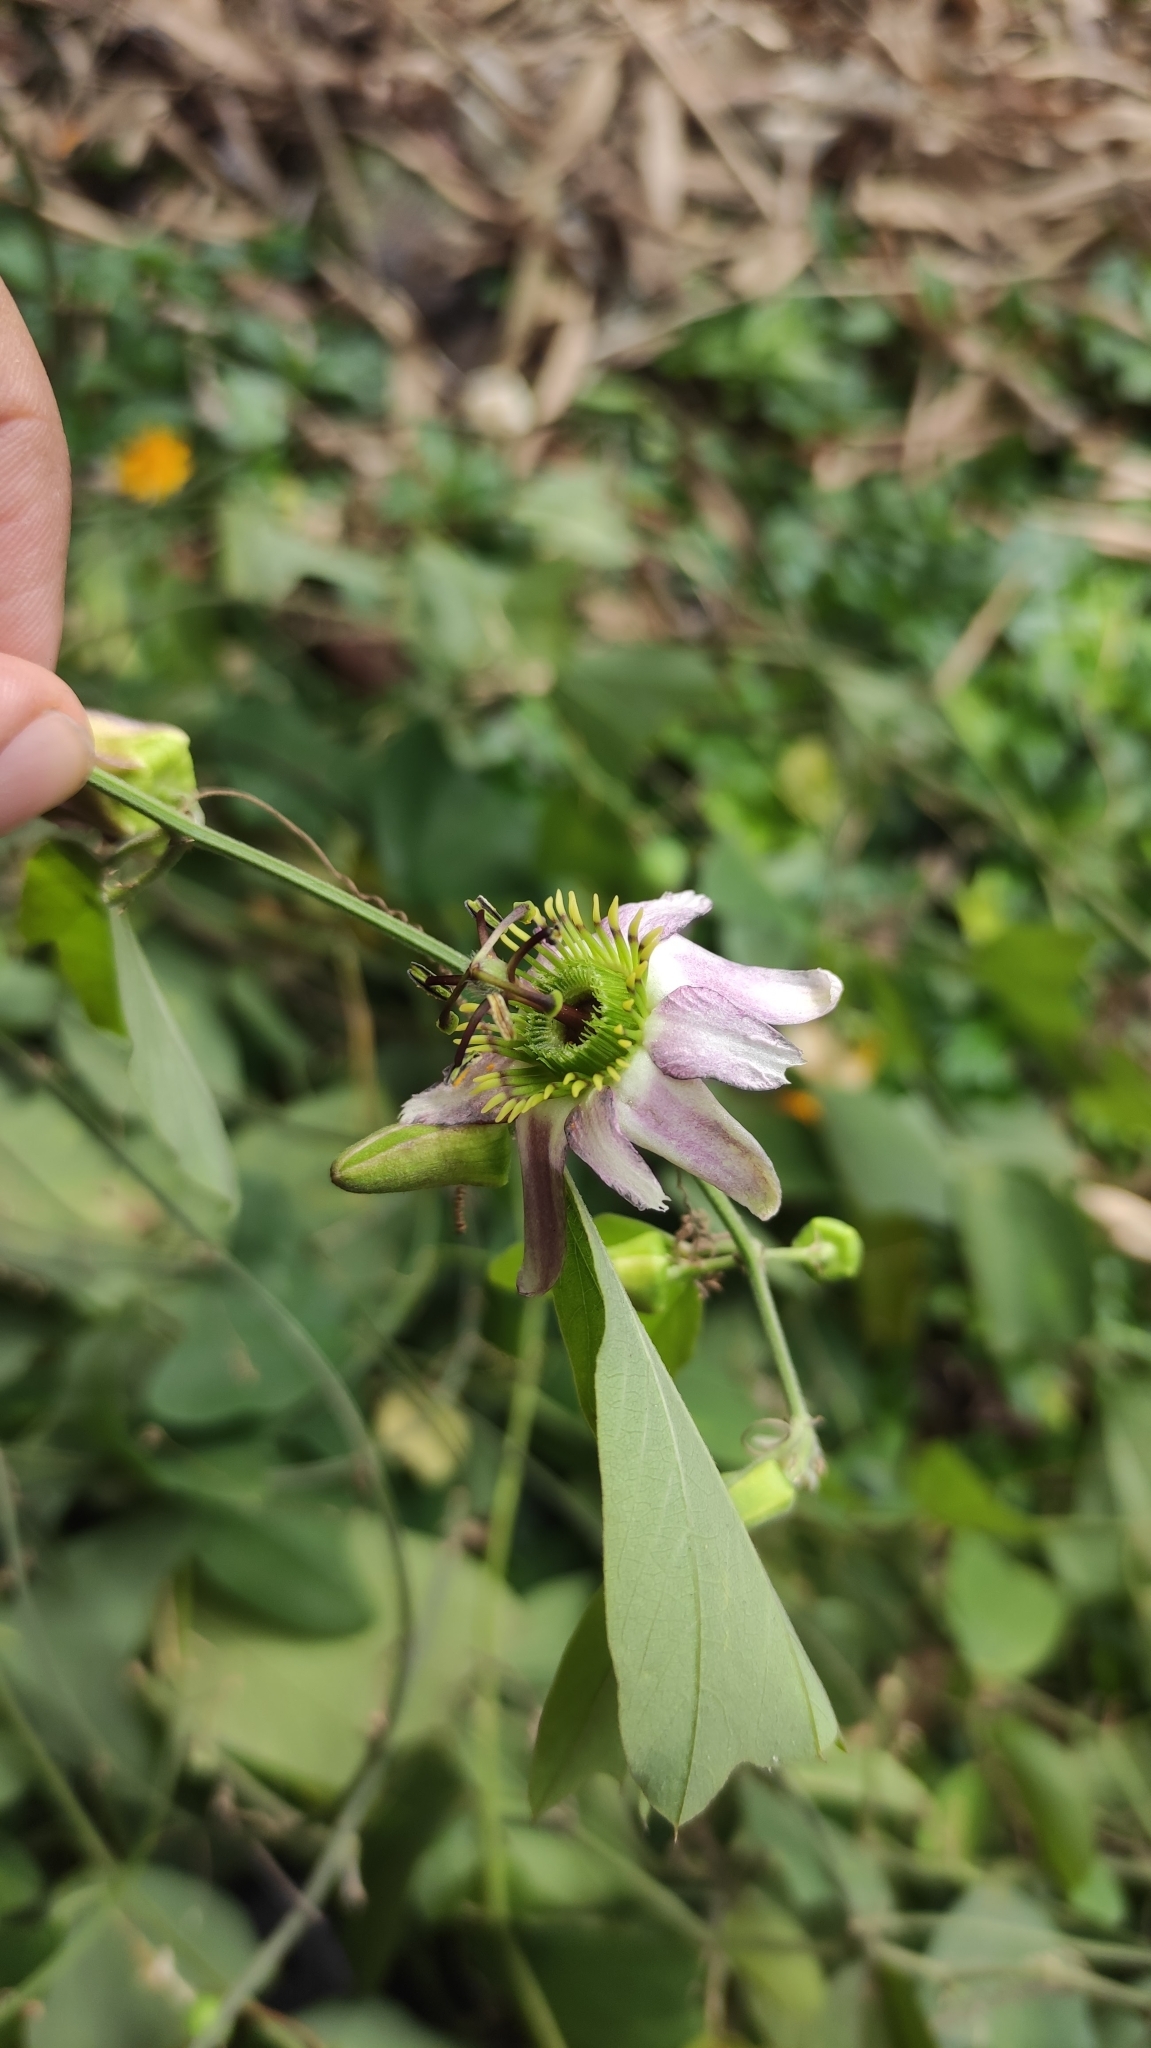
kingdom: Plantae
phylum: Tracheophyta
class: Magnoliopsida
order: Malpighiales
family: Passifloraceae
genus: Passiflora
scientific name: Passiflora cuneata
